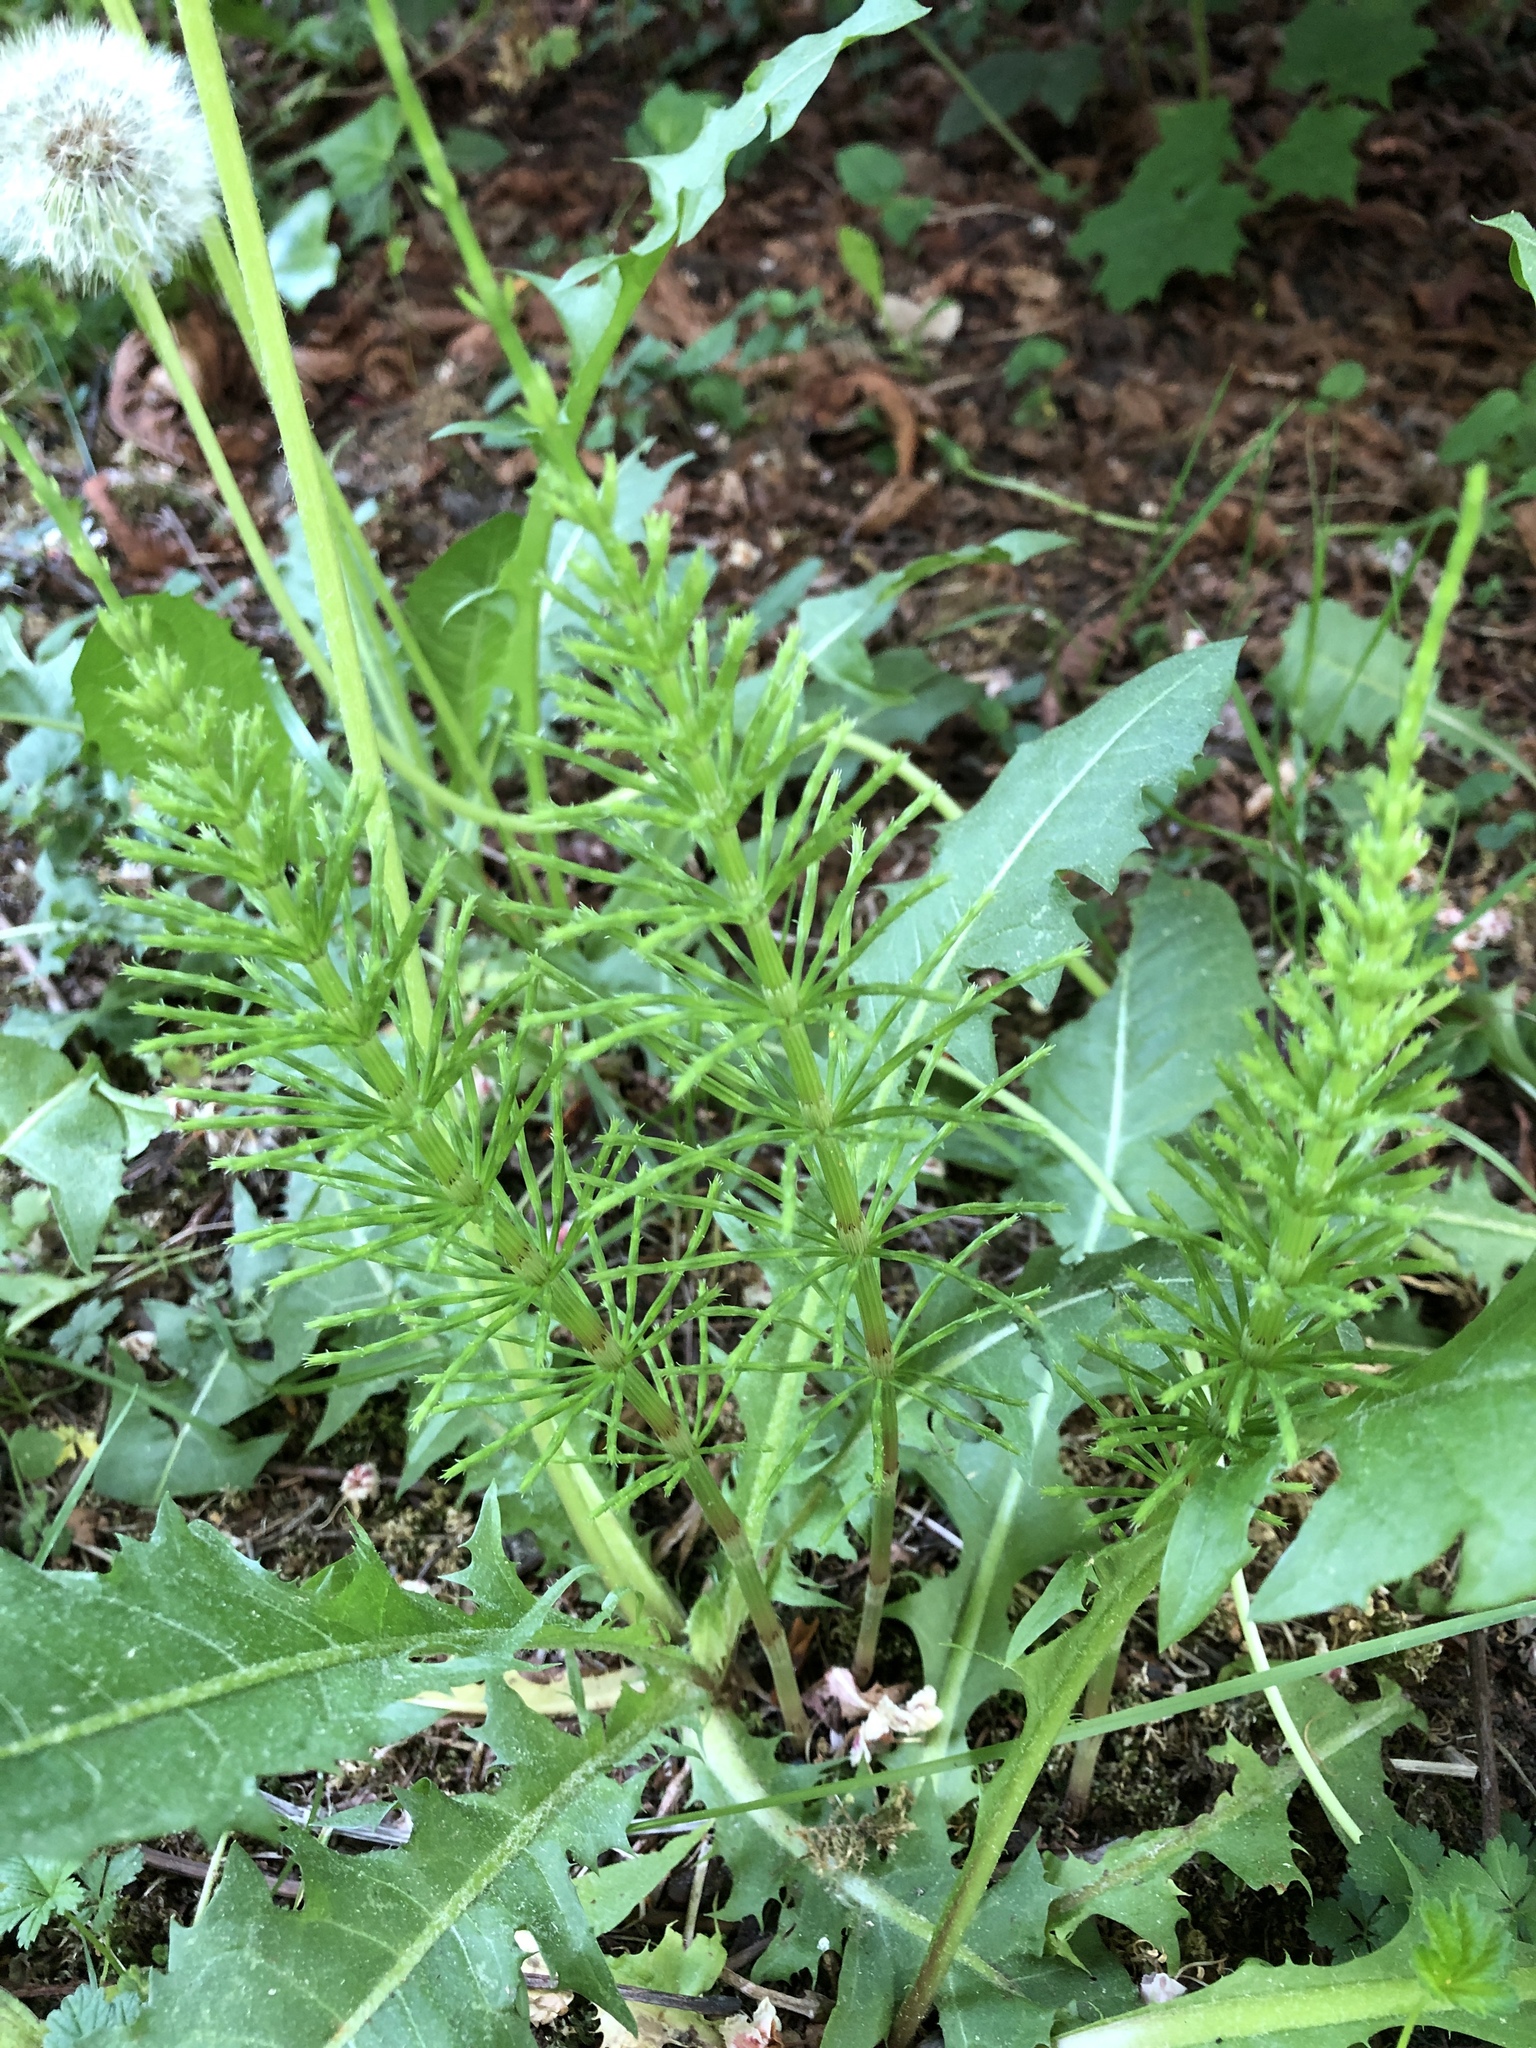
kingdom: Plantae
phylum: Tracheophyta
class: Polypodiopsida
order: Equisetales
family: Equisetaceae
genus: Equisetum
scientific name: Equisetum arvense
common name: Field horsetail
